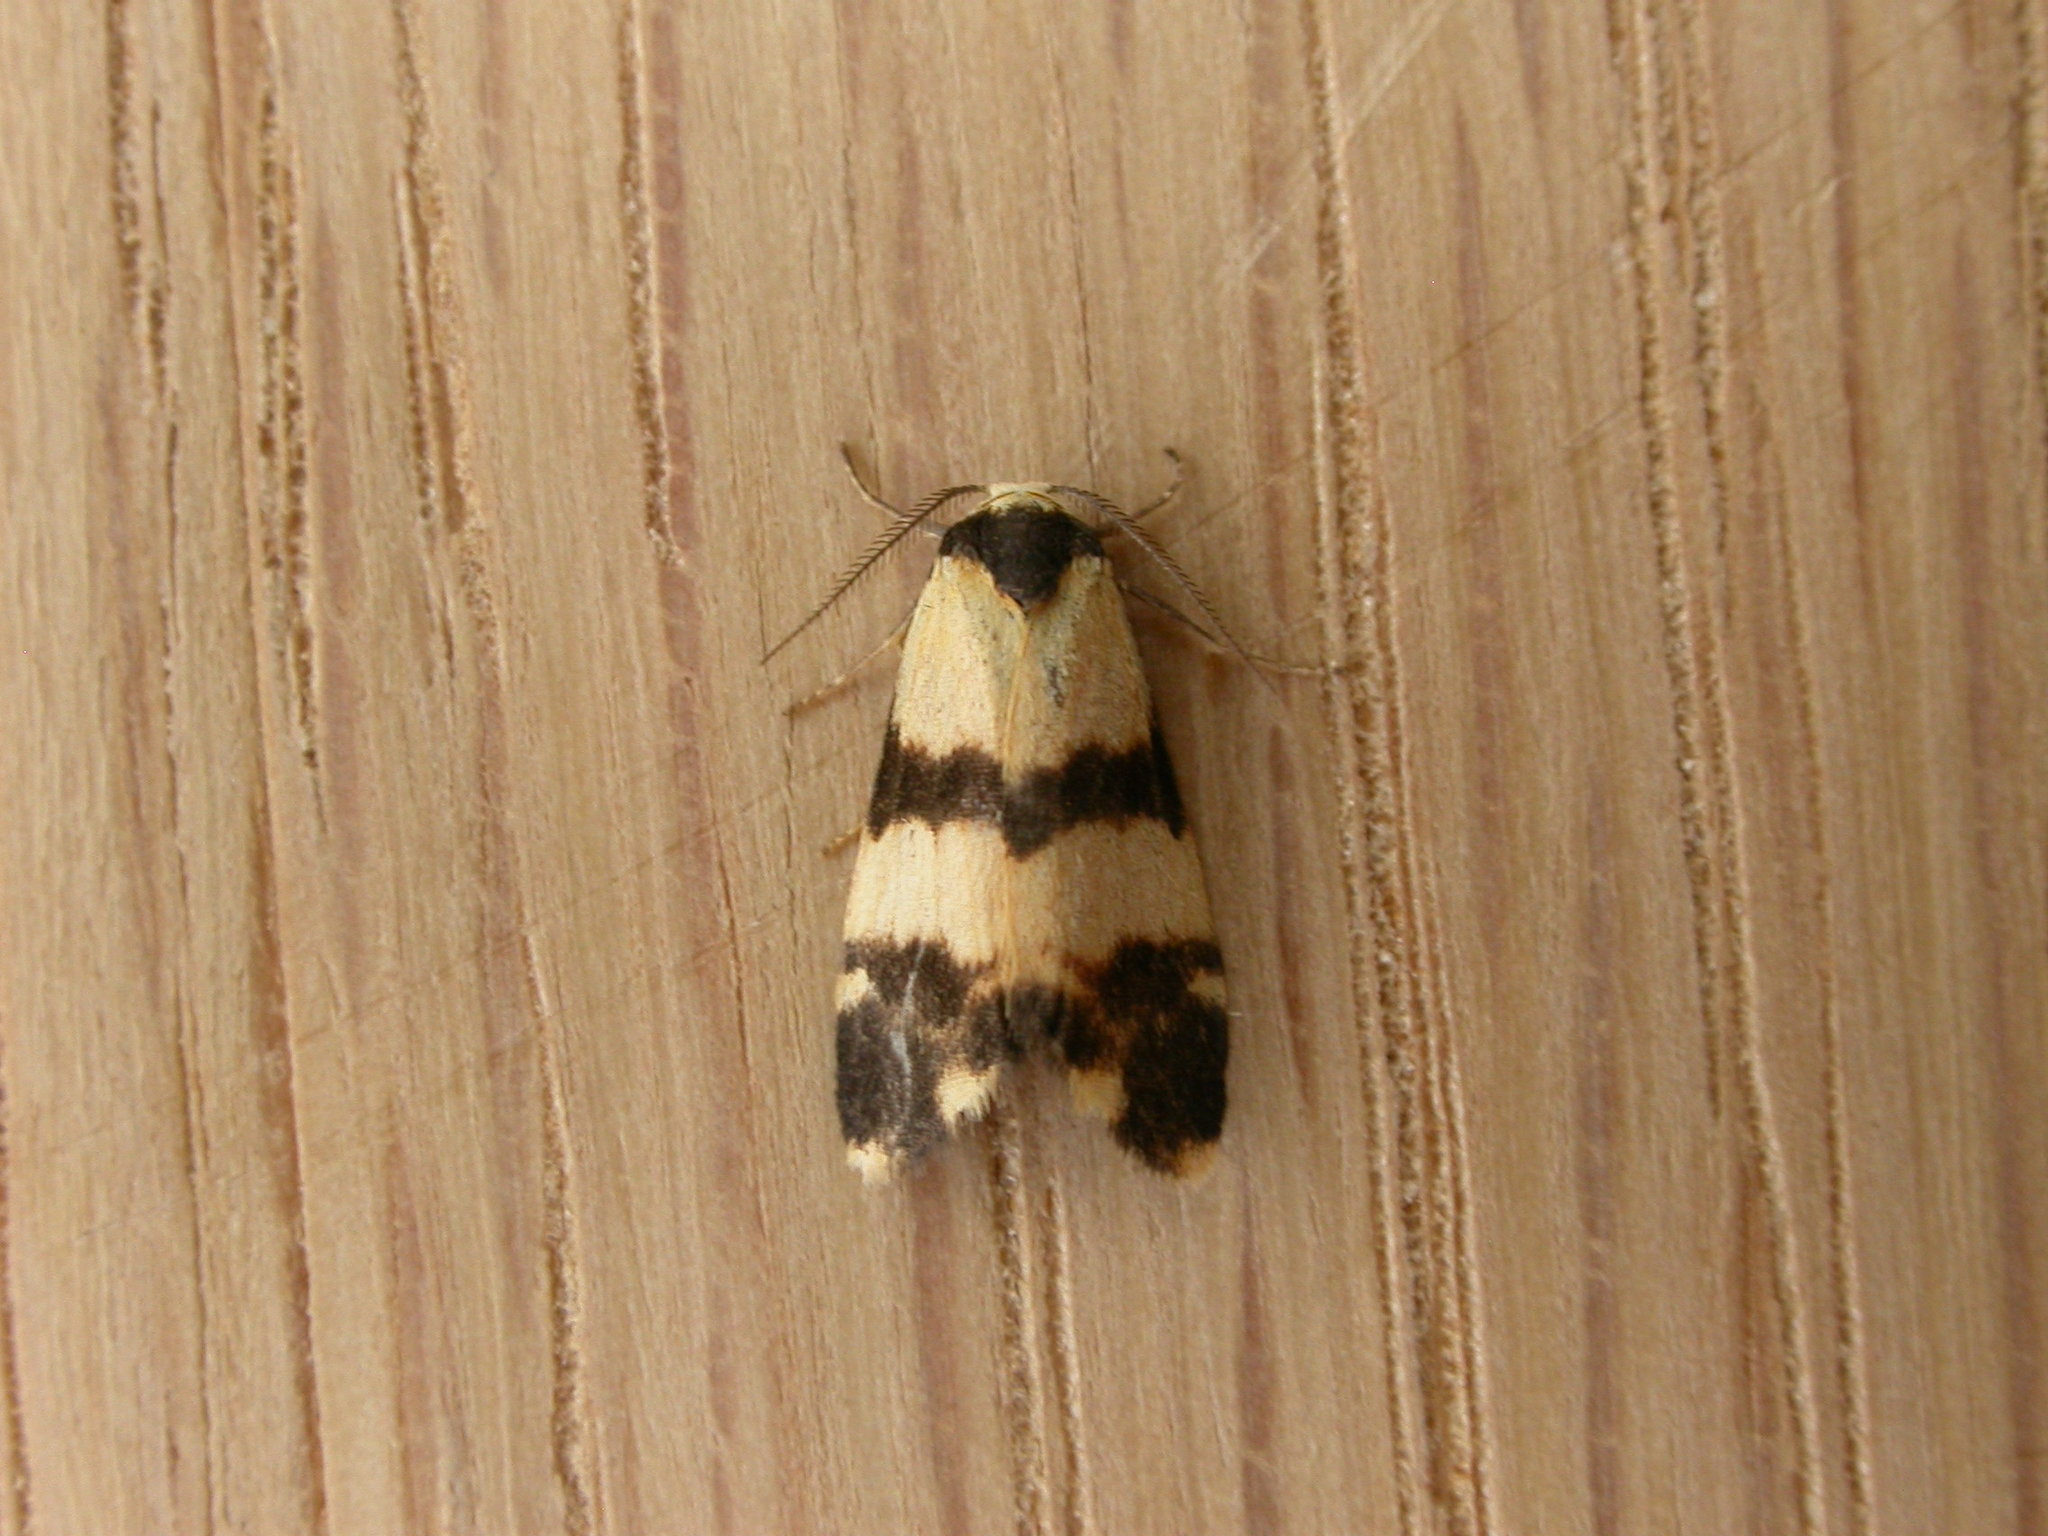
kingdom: Animalia
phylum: Arthropoda
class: Insecta
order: Lepidoptera
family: Erebidae
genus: Thallarcha
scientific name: Thallarcha chrysochares
